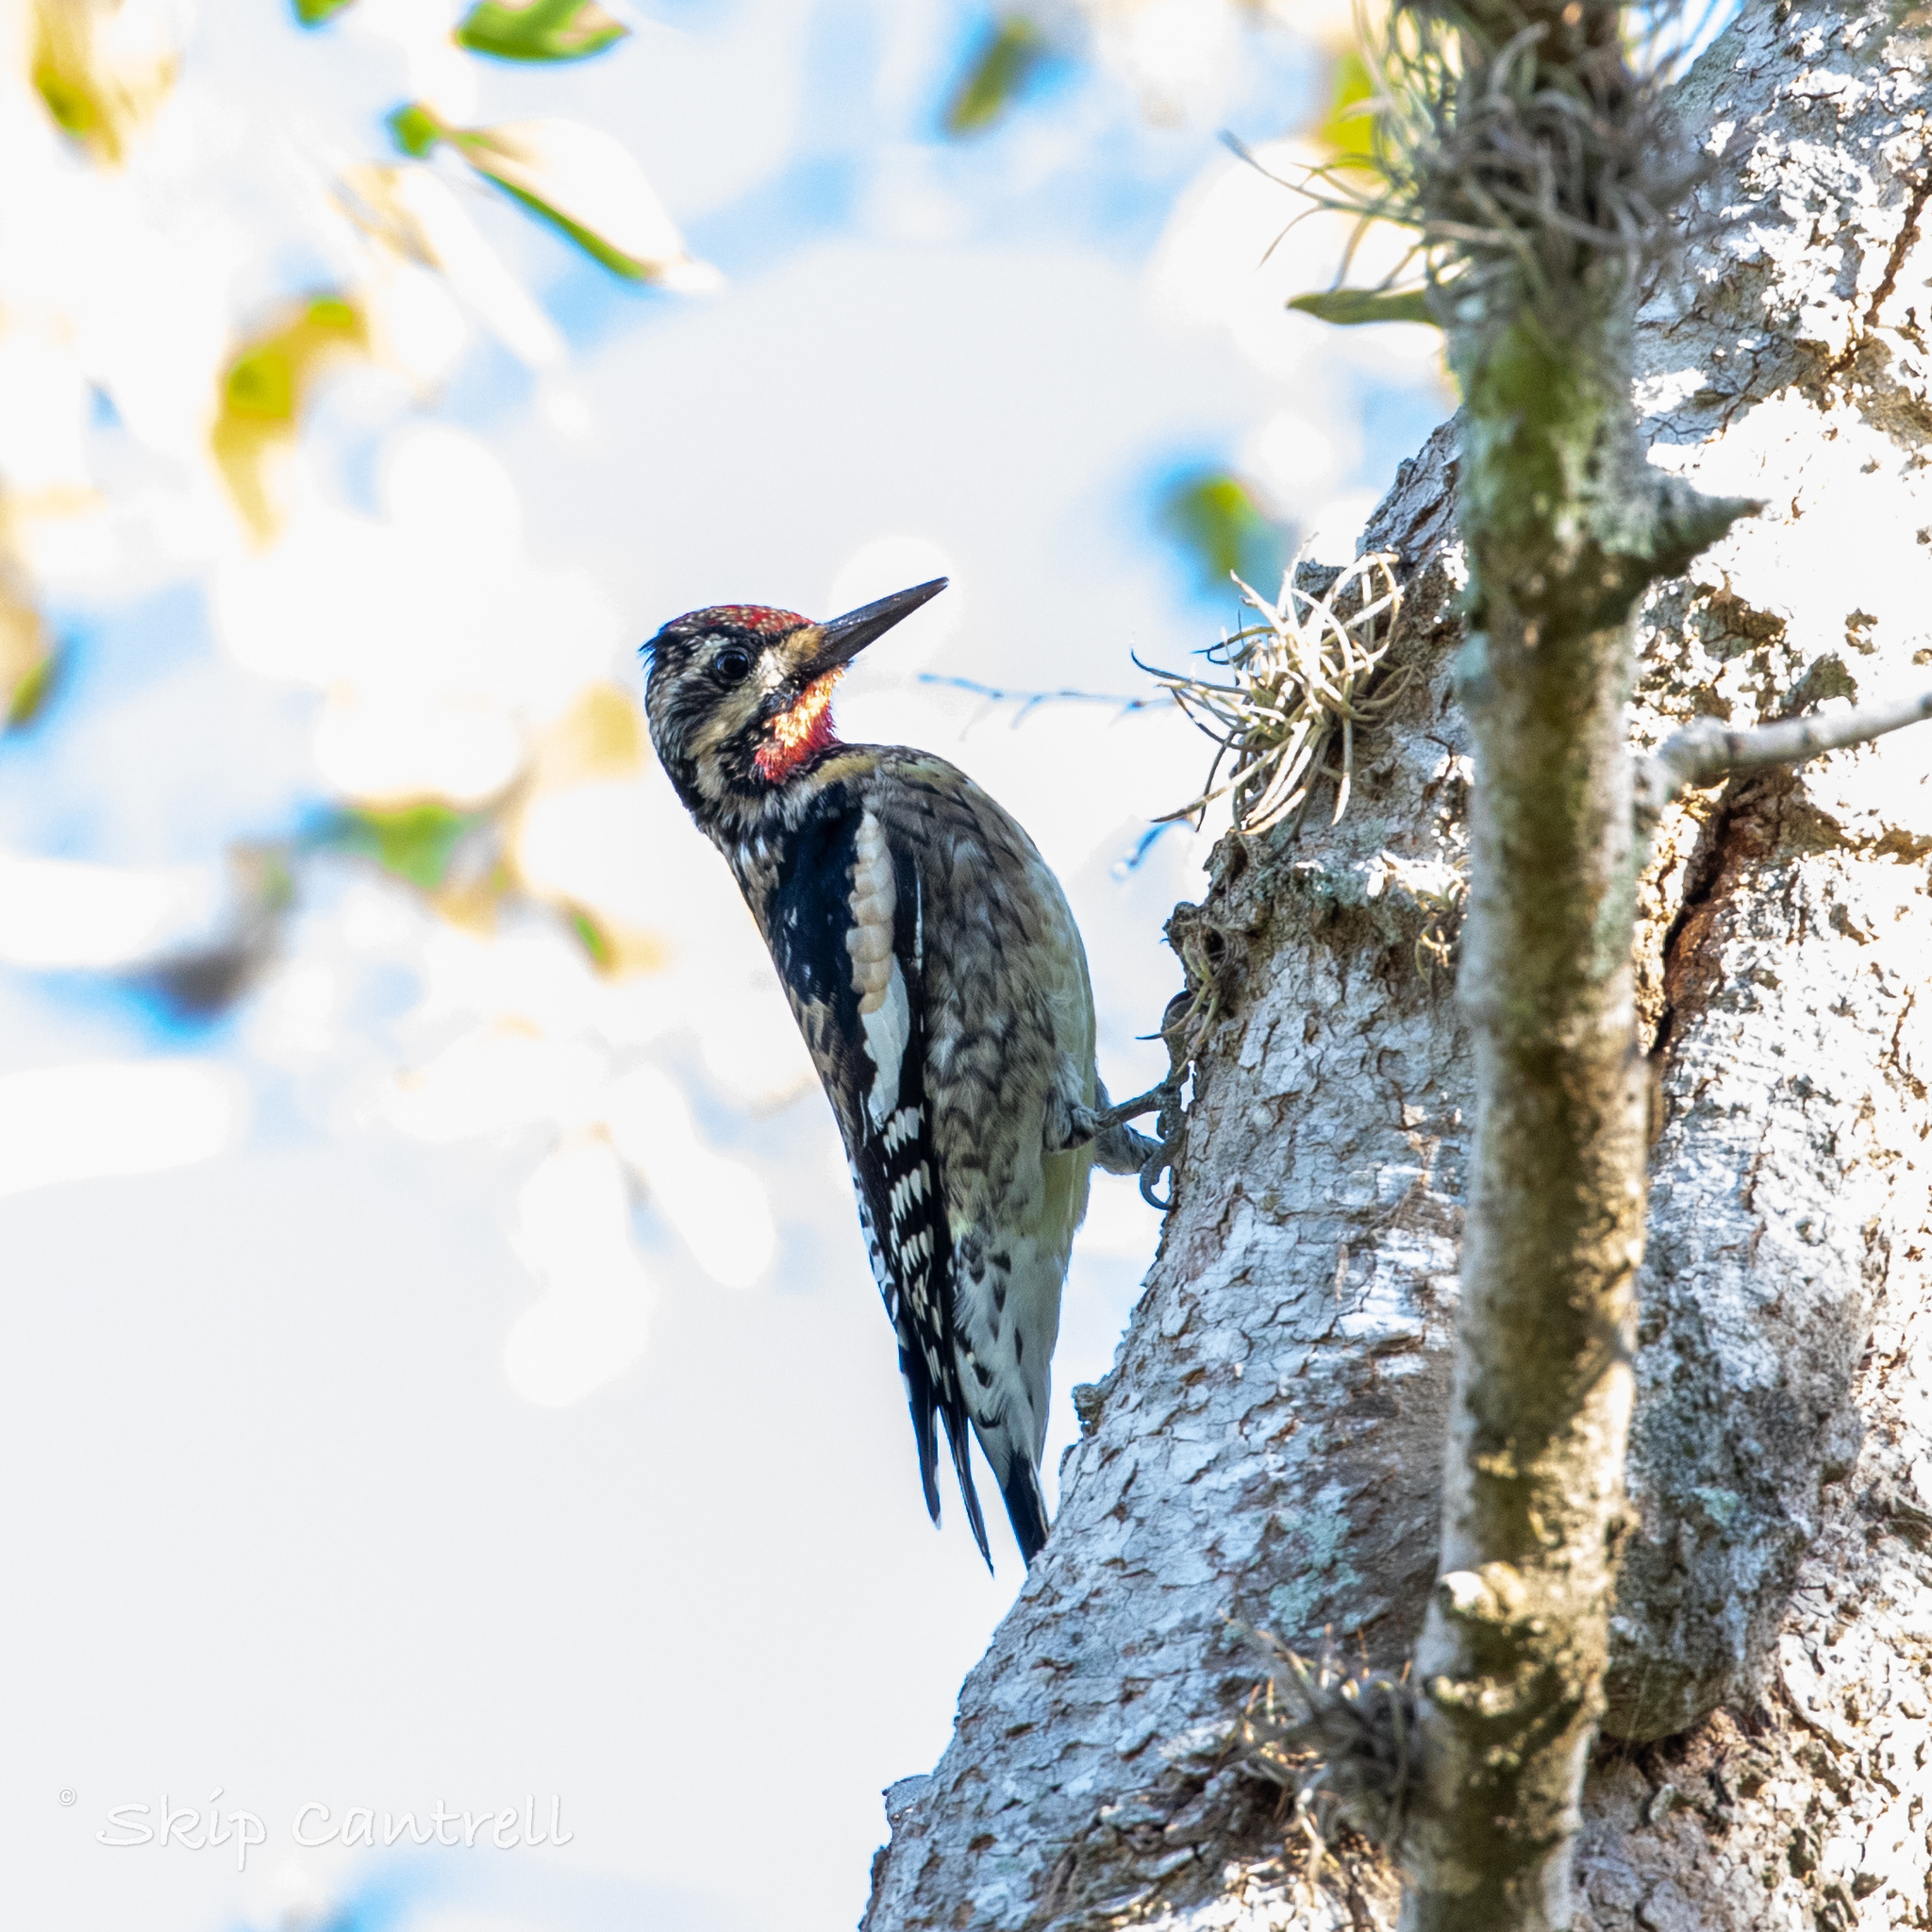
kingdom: Animalia
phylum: Chordata
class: Aves
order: Piciformes
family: Picidae
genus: Sphyrapicus
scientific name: Sphyrapicus varius
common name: Yellow-bellied sapsucker
